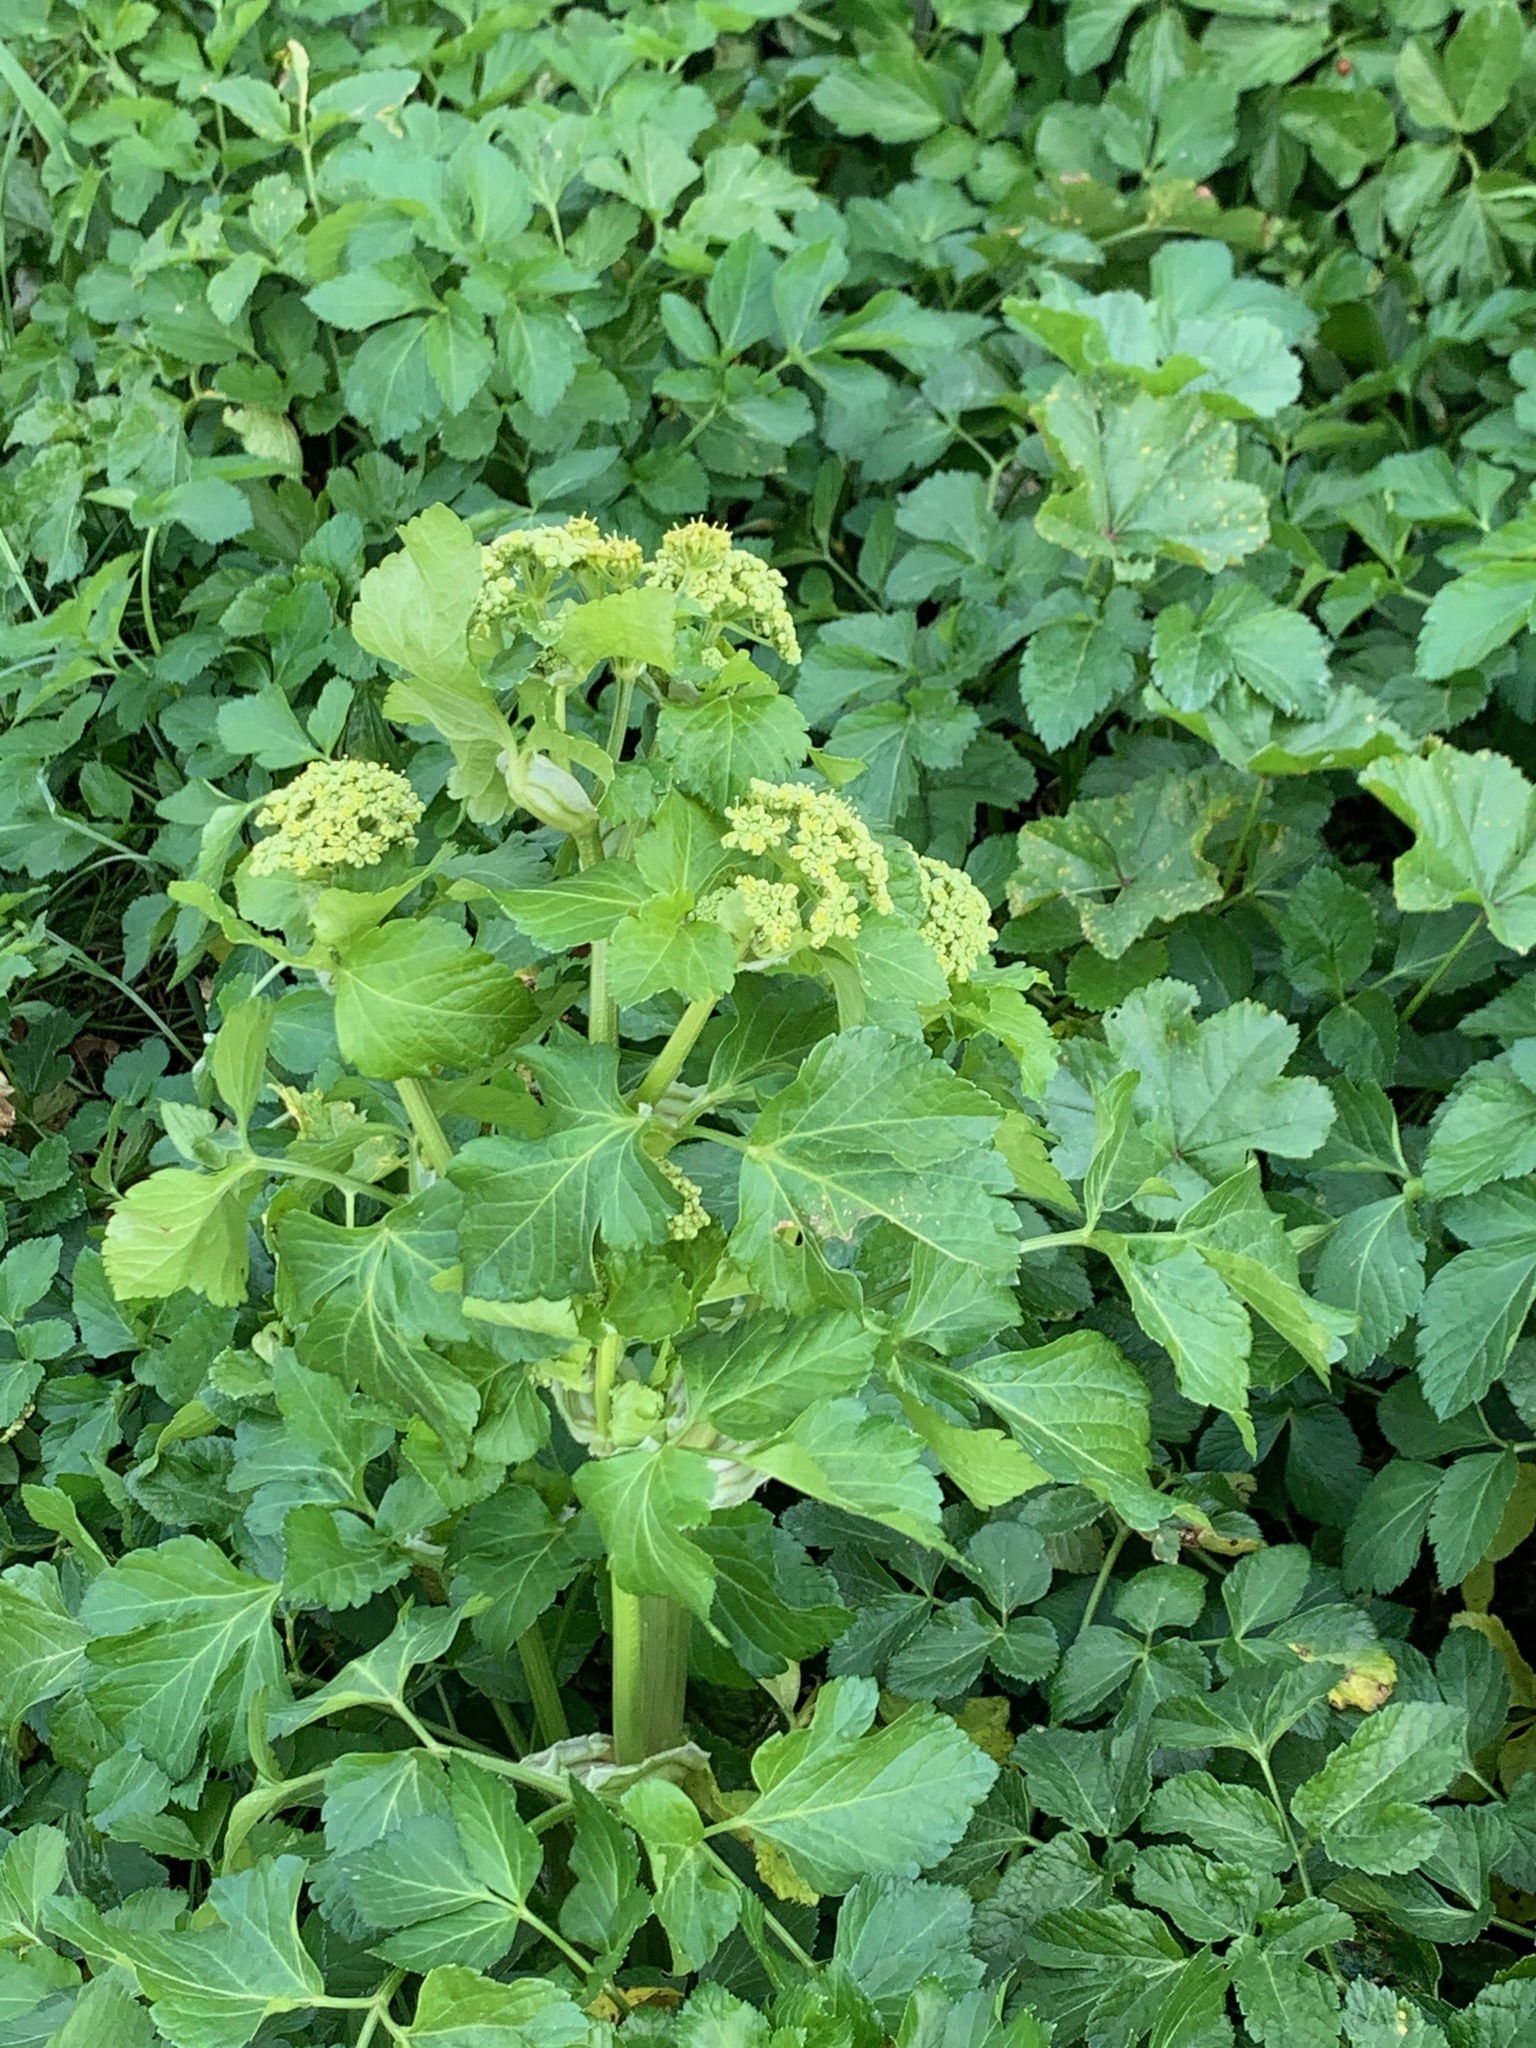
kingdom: Plantae
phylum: Tracheophyta
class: Magnoliopsida
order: Apiales
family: Apiaceae
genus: Smyrnium
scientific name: Smyrnium olusatrum
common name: Alexanders
